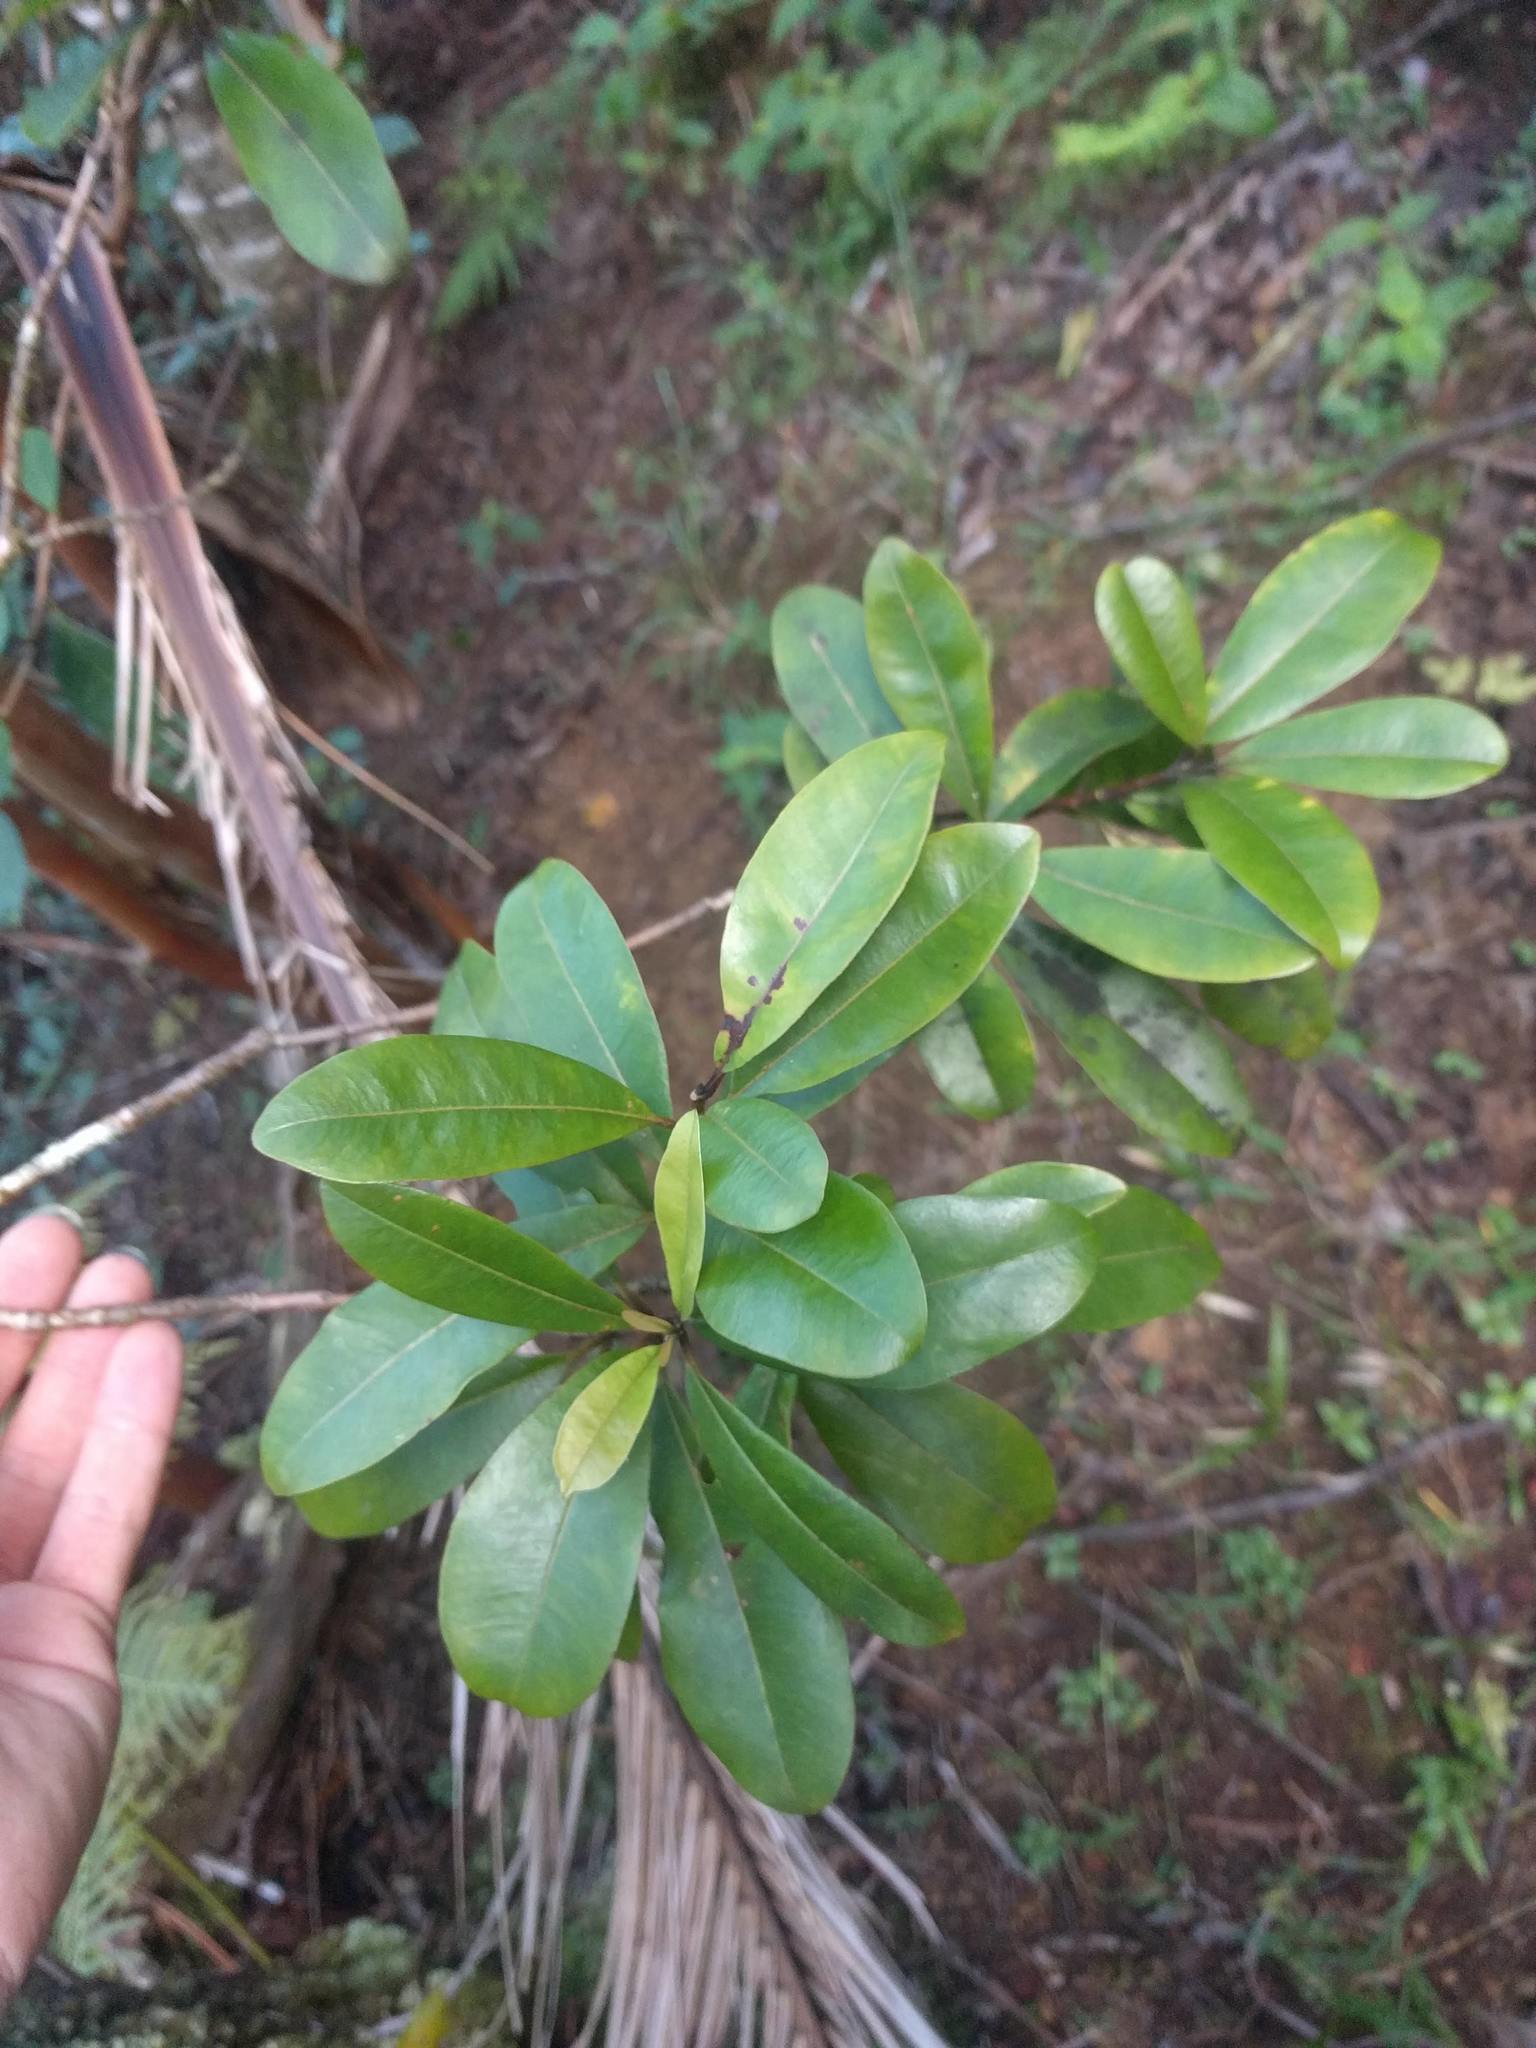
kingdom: Plantae
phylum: Tracheophyta
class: Magnoliopsida
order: Myrtales
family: Myrtaceae
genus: Syzygium
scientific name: Syzygium sandwicense
